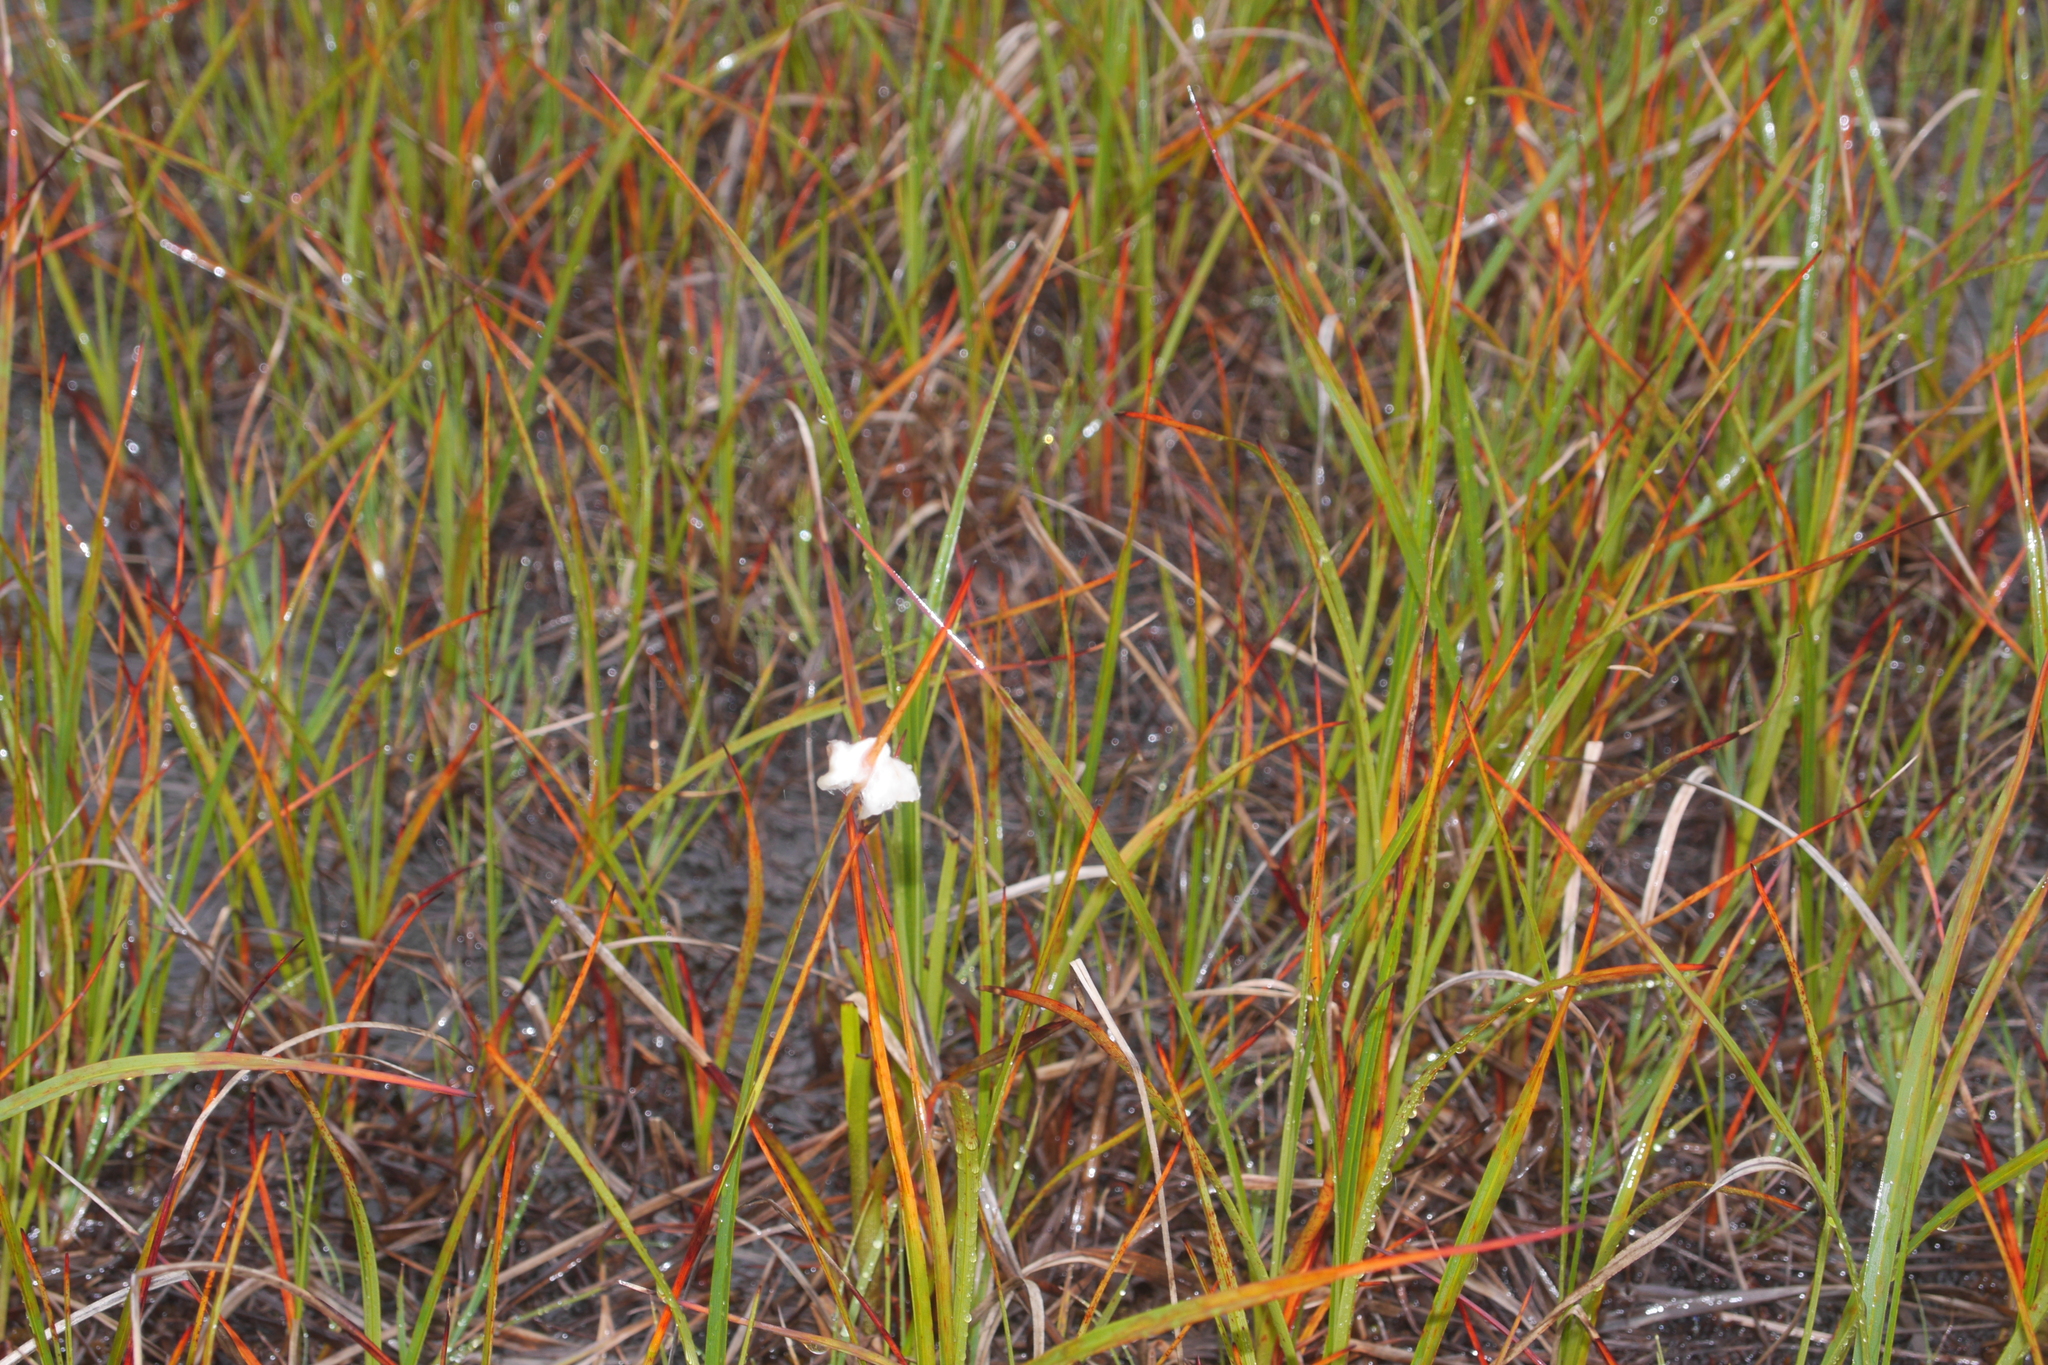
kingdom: Plantae
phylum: Tracheophyta
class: Liliopsida
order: Poales
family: Cyperaceae
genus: Eriophorum
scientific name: Eriophorum angustifolium
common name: Common cottongrass
